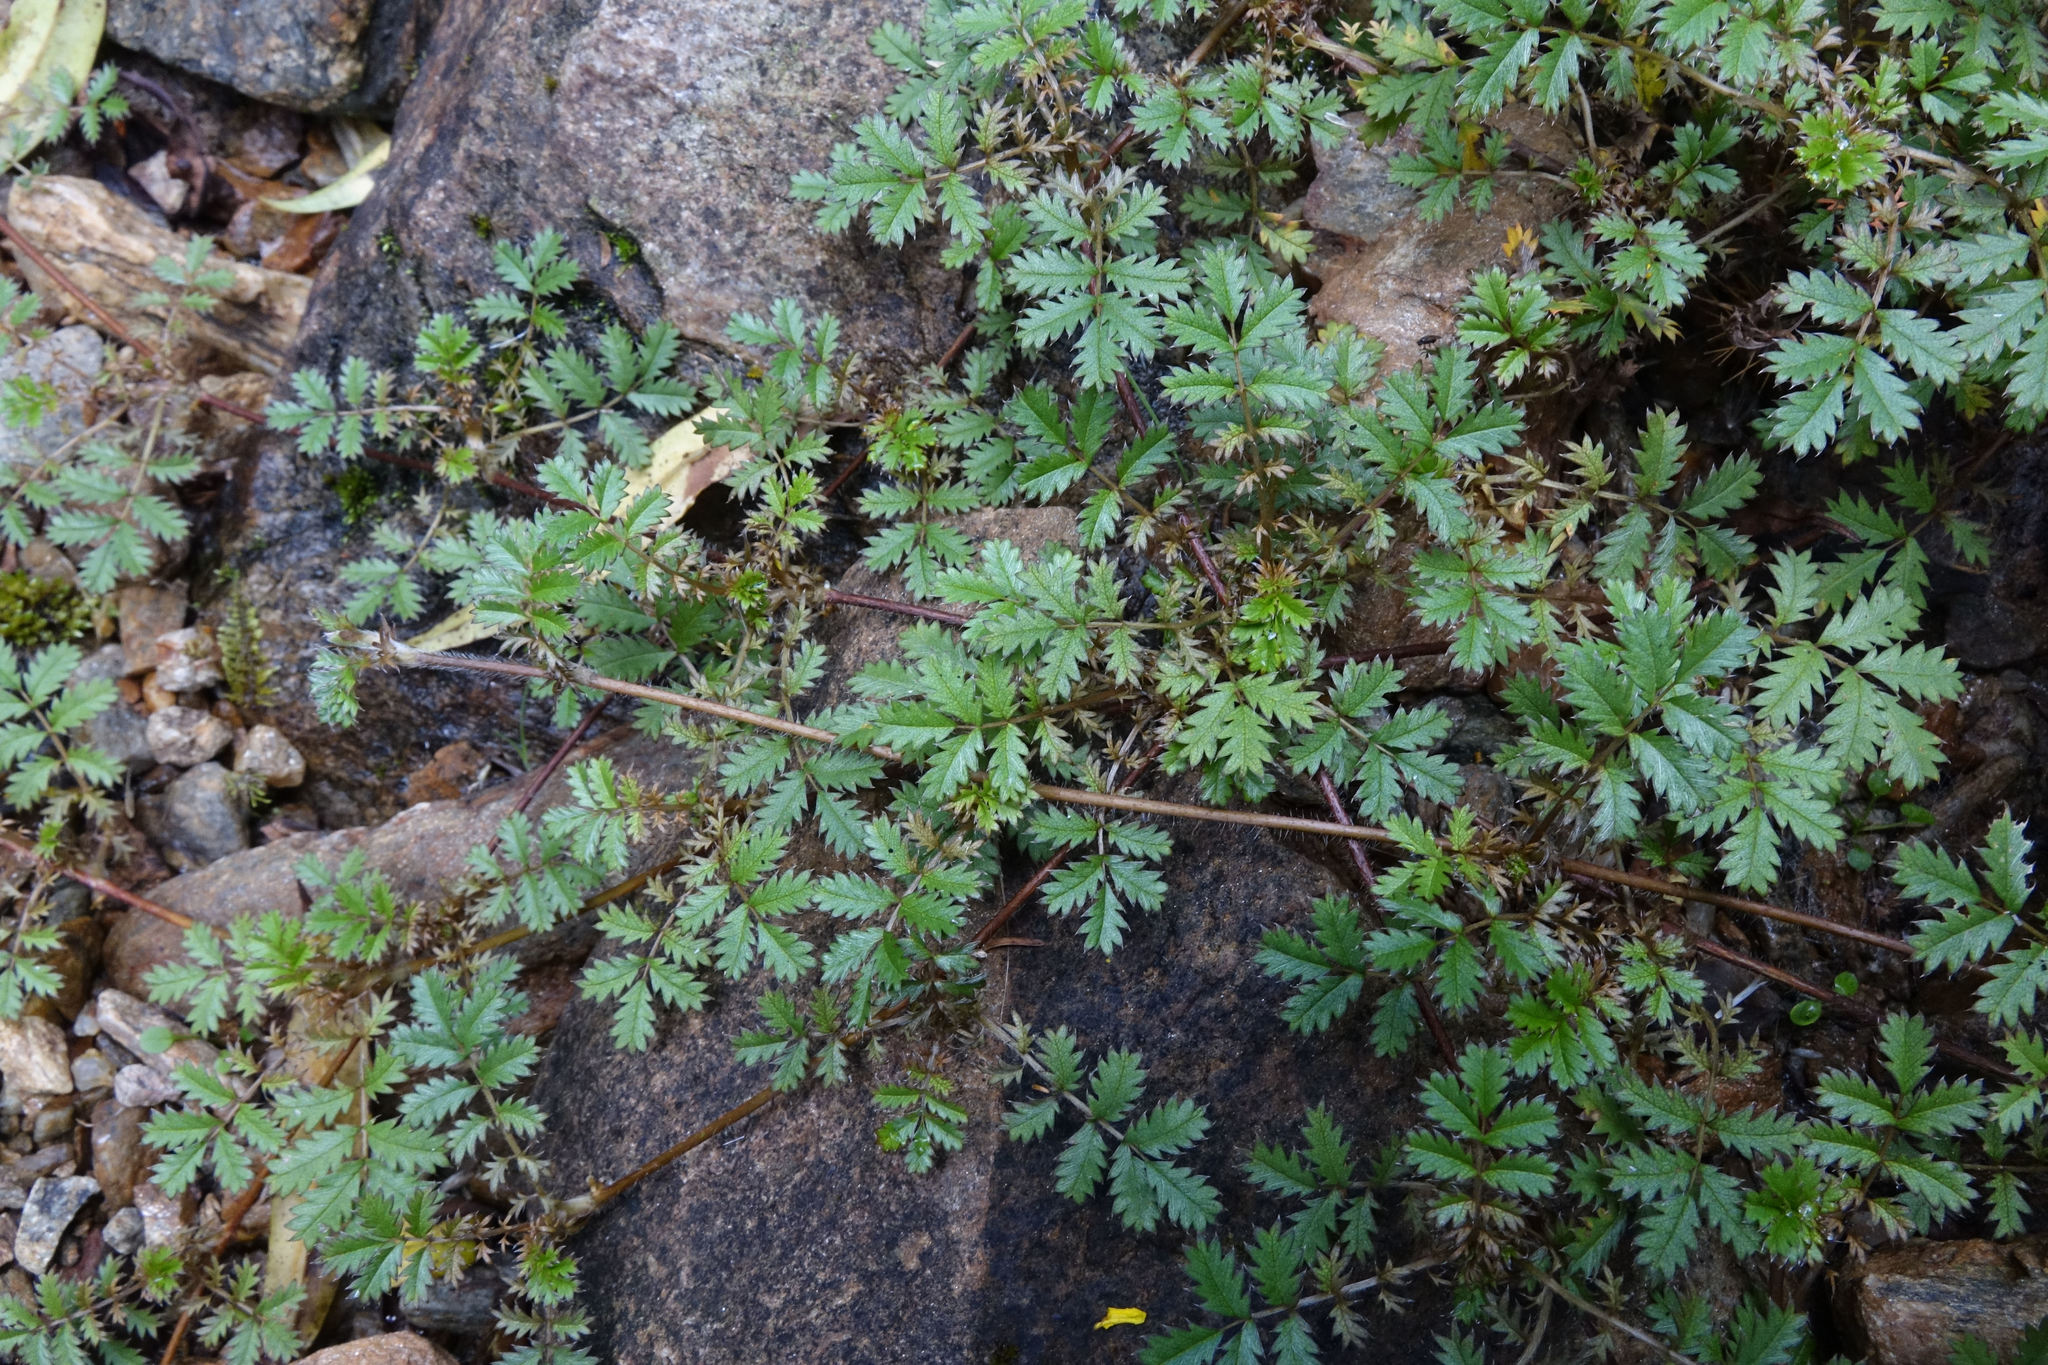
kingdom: Plantae
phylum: Tracheophyta
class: Magnoliopsida
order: Rosales
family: Rosaceae
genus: Acaena
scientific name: Acaena anserinifolia
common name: Bronze pirri-pirri-bur
